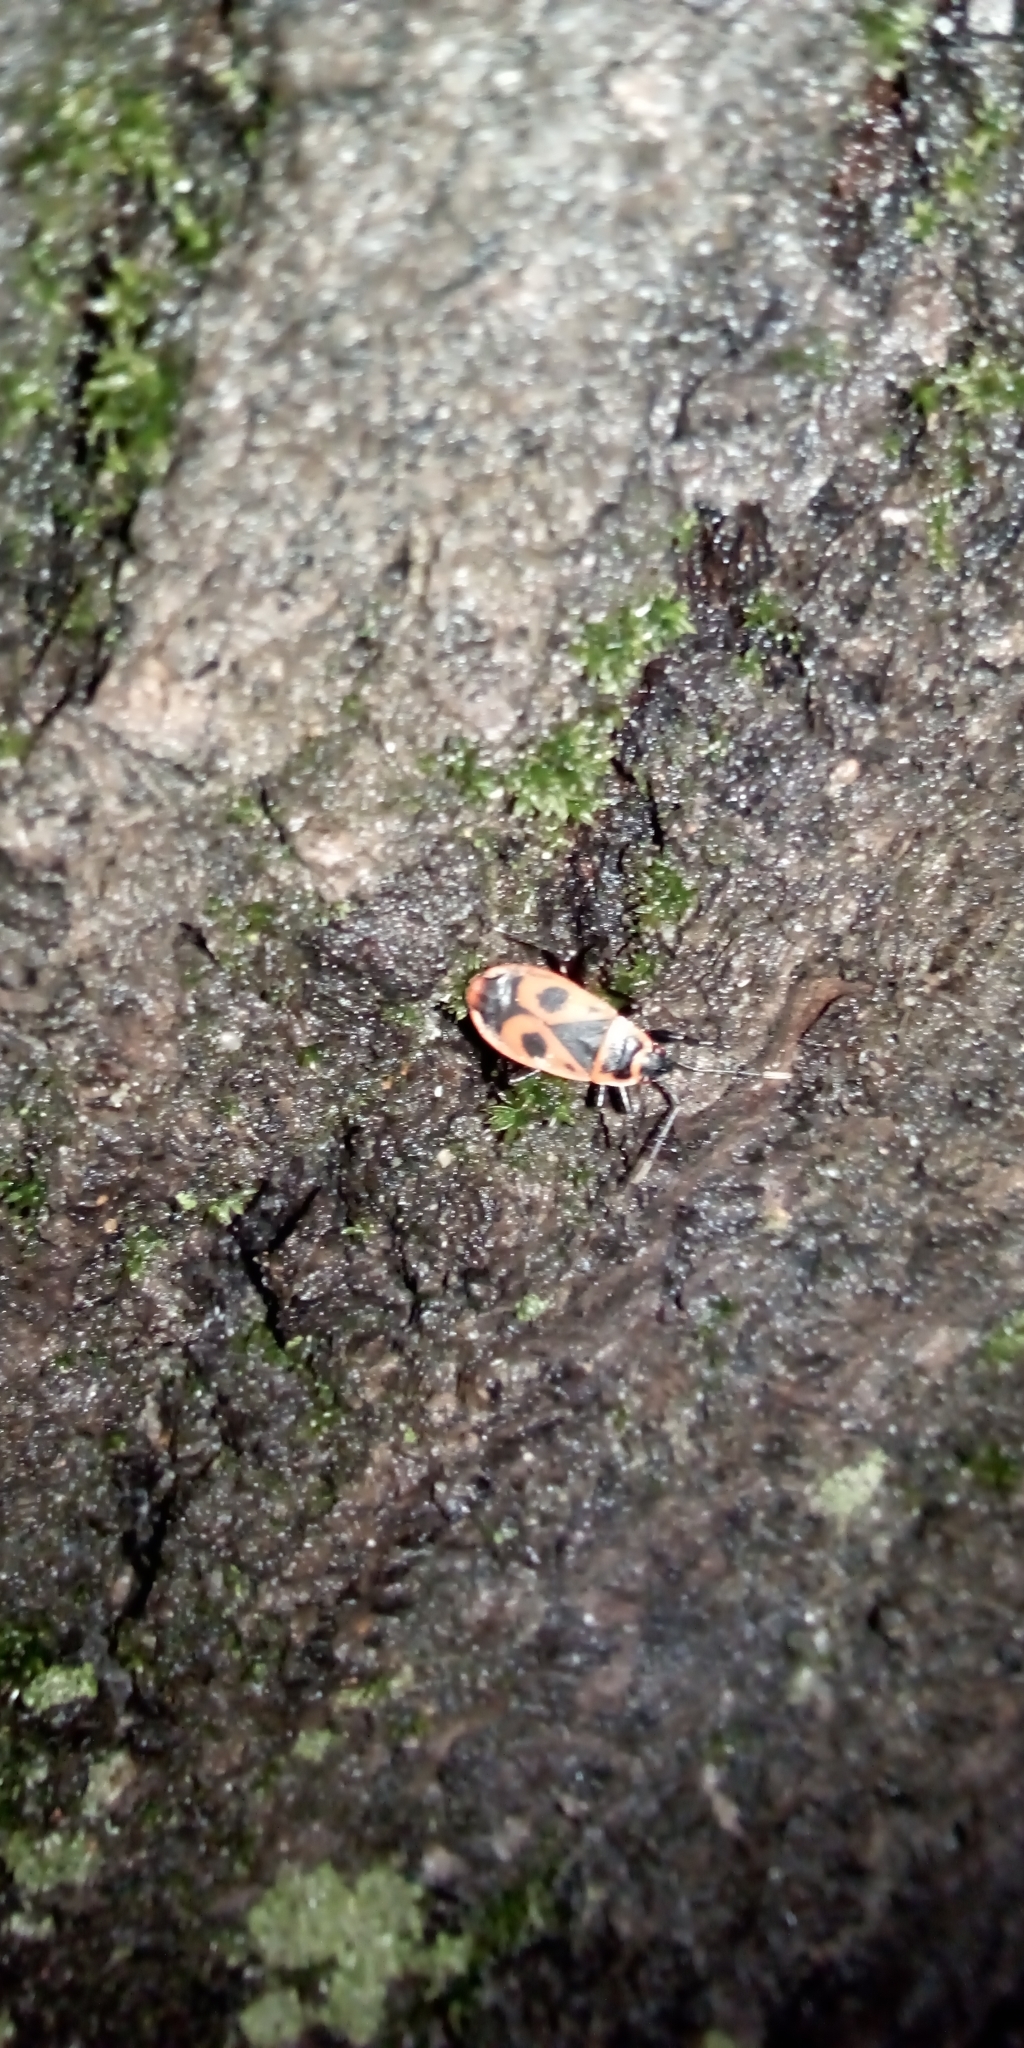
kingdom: Animalia
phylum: Arthropoda
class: Insecta
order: Hemiptera
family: Pyrrhocoridae
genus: Pyrrhocoris
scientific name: Pyrrhocoris apterus
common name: Firebug
